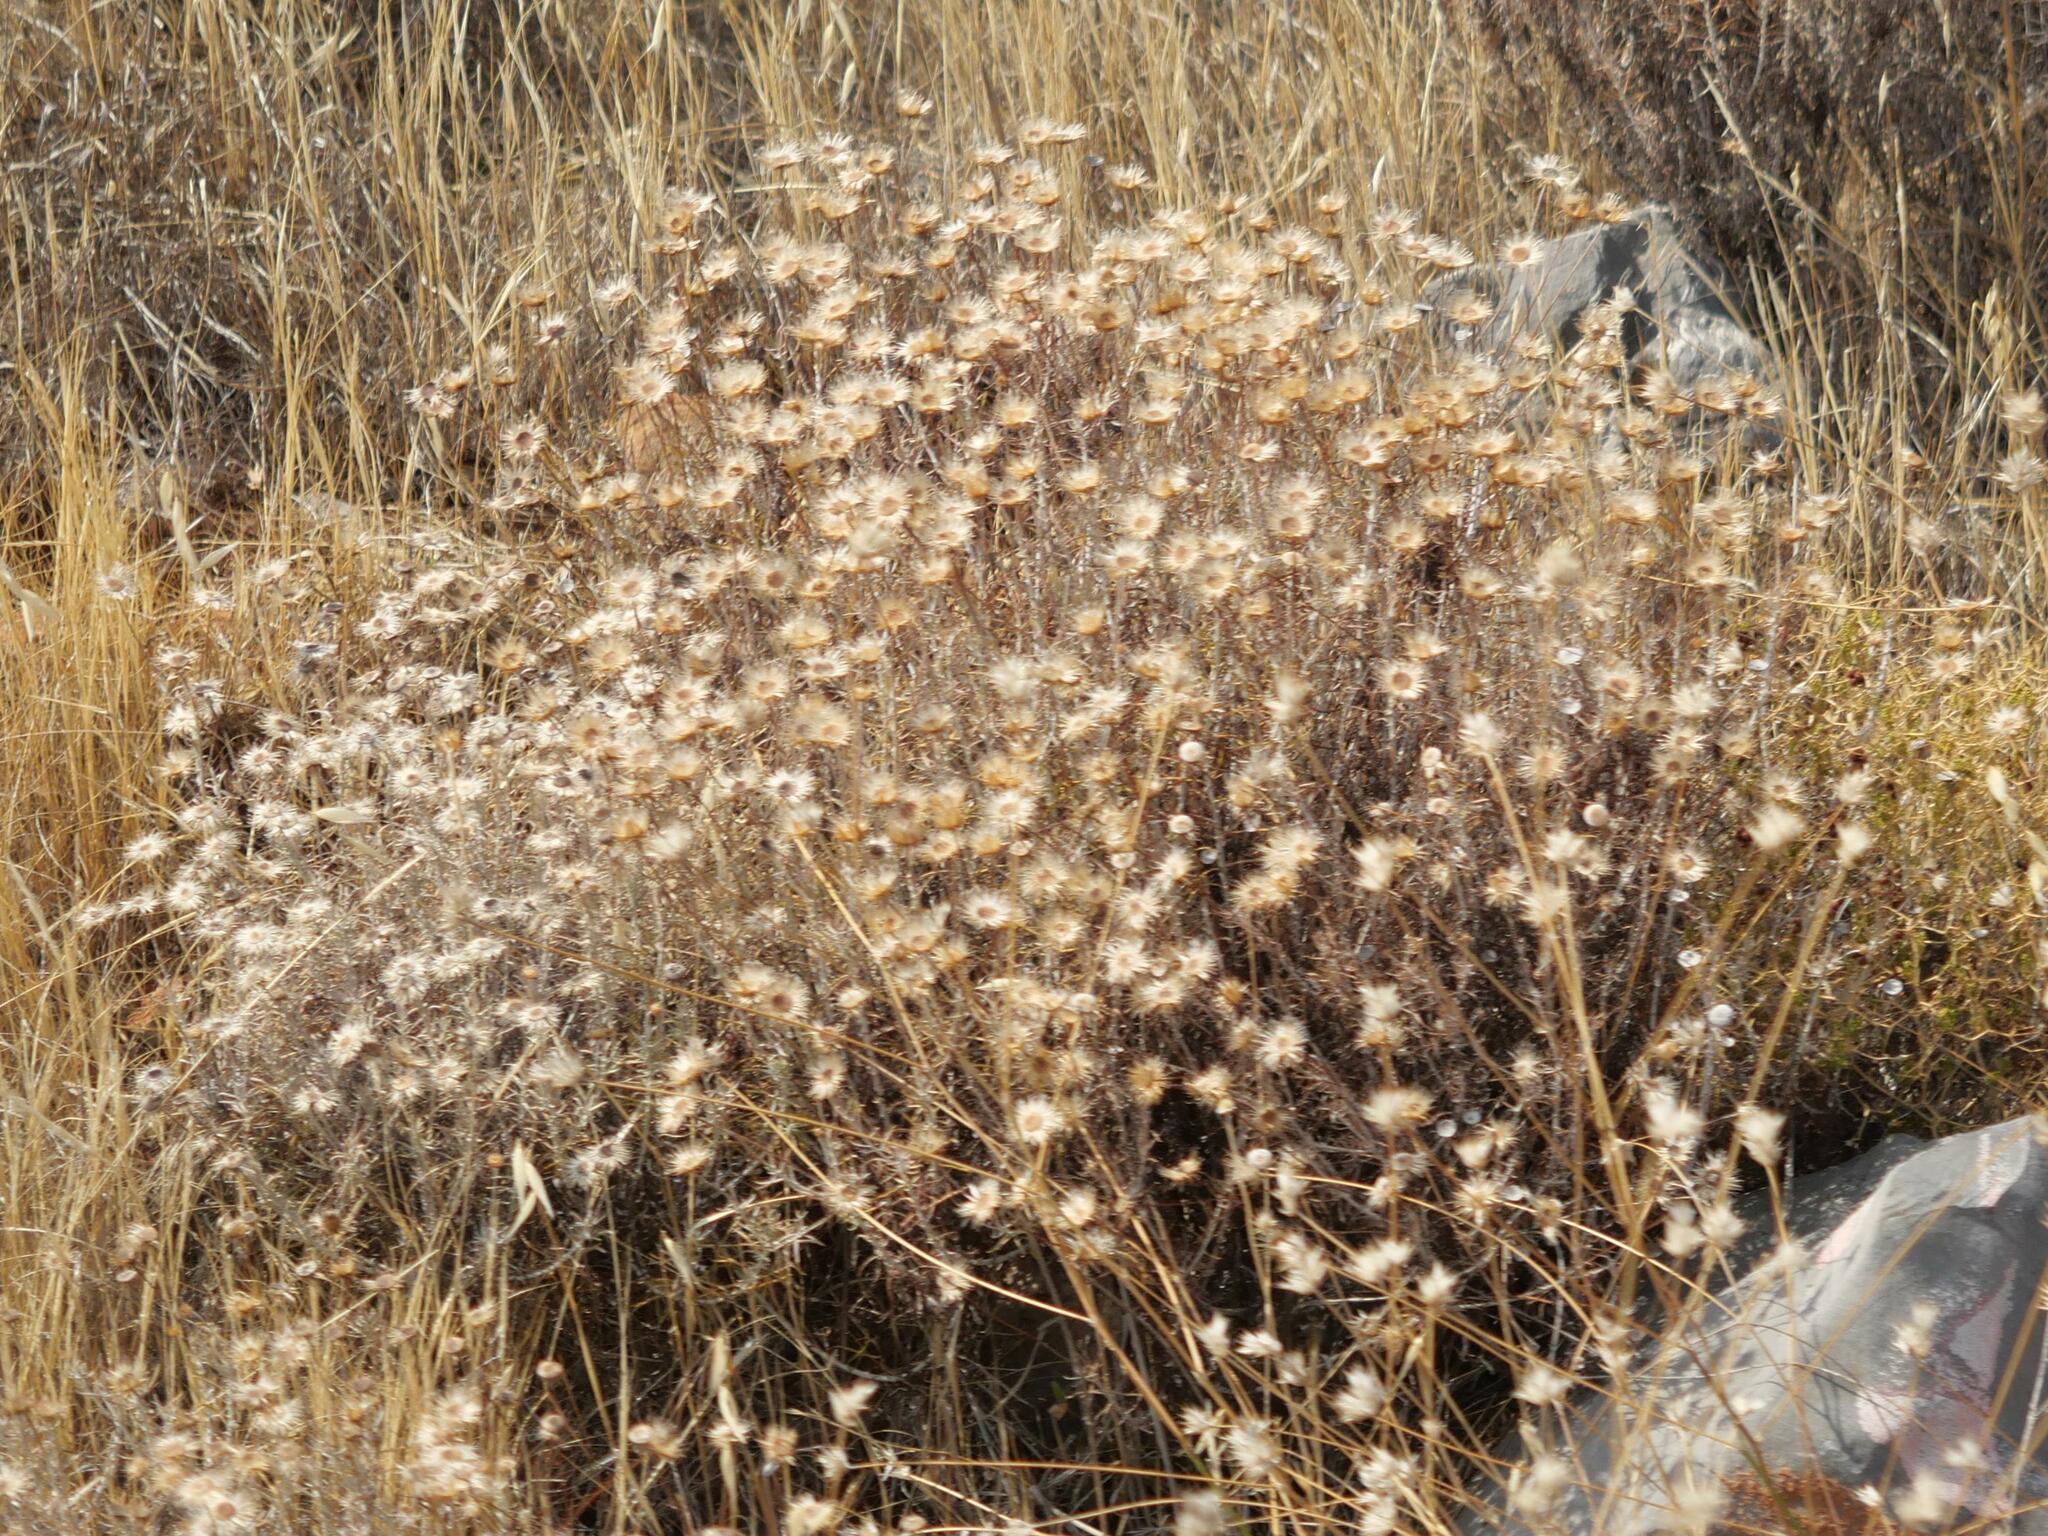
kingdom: Plantae
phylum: Tracheophyta
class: Magnoliopsida
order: Asterales
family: Asteraceae
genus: Phagnalon
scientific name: Phagnalon graecum
